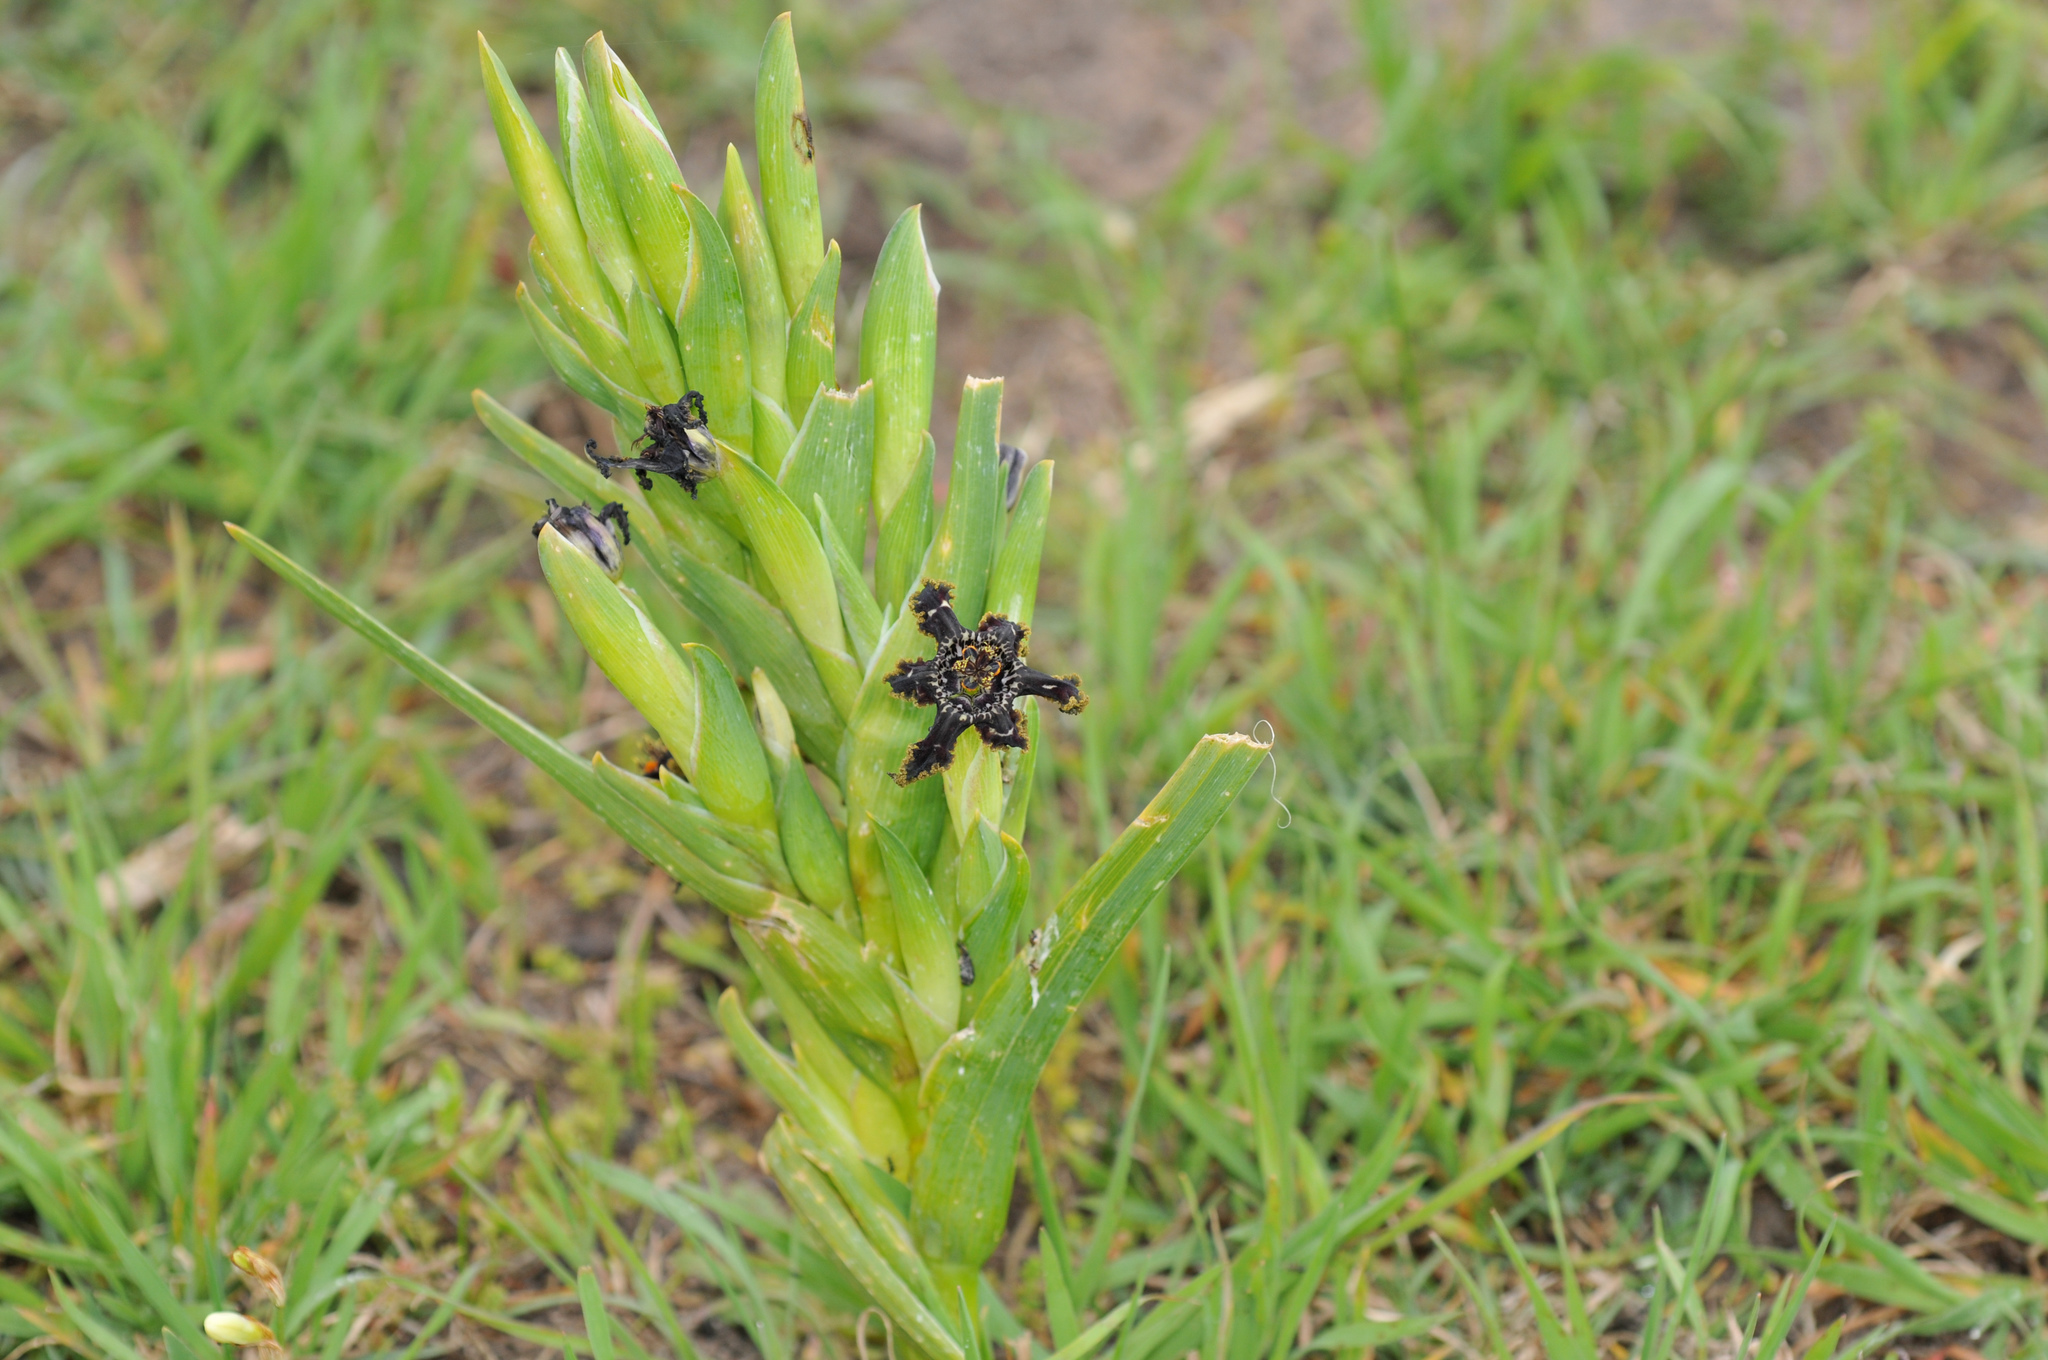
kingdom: Plantae
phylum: Tracheophyta
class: Liliopsida
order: Asparagales
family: Iridaceae
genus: Ferraria
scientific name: Ferraria crispa
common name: Black-flag
